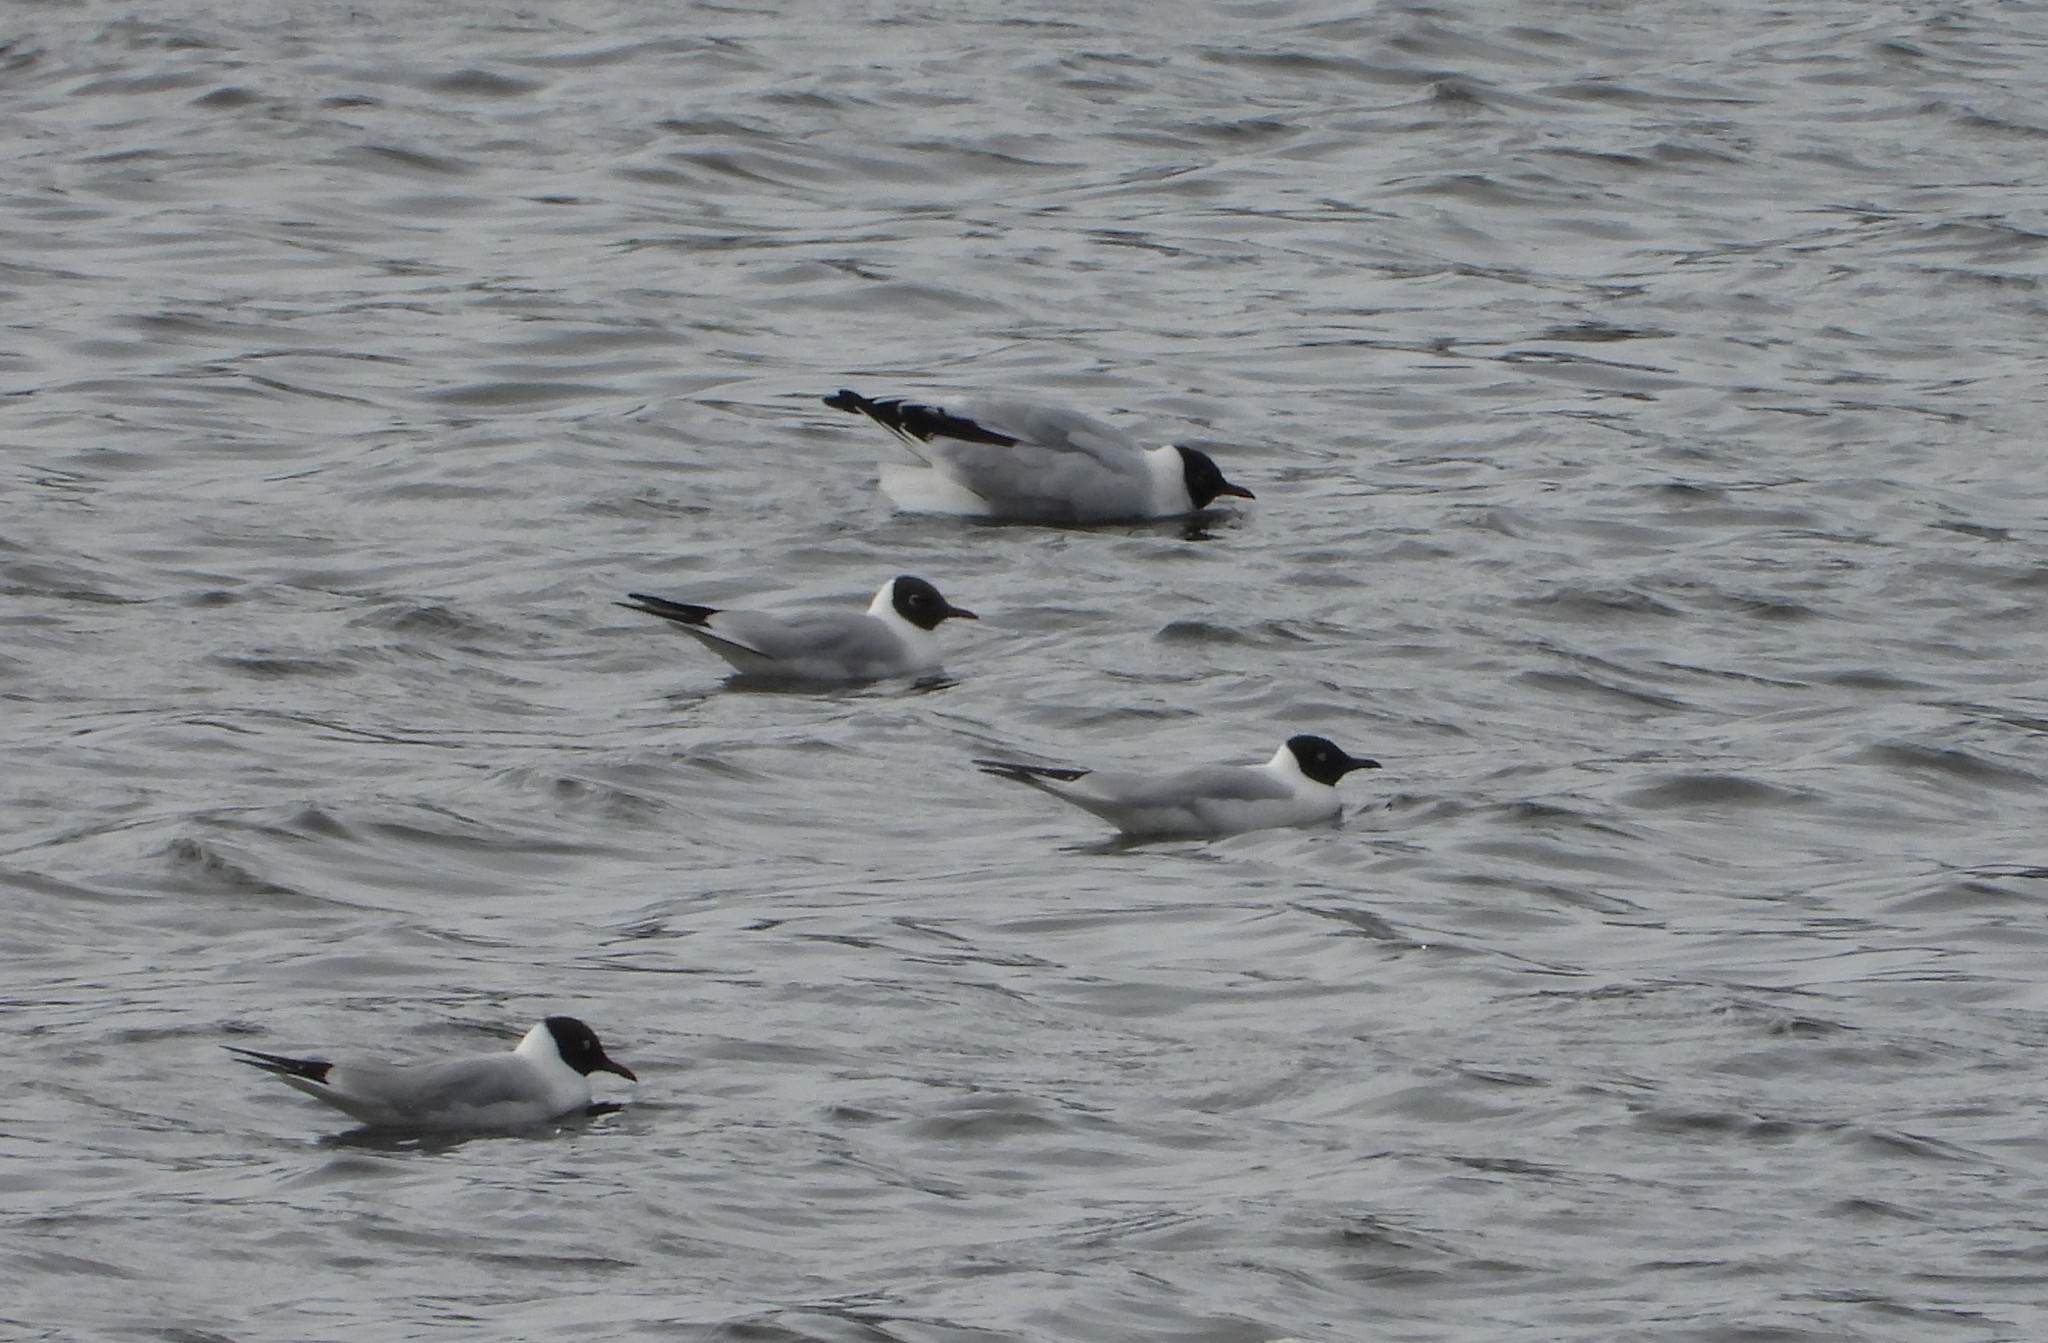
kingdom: Animalia
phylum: Chordata
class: Aves
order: Charadriiformes
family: Laridae
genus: Chroicocephalus
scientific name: Chroicocephalus ridibundus
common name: Black-headed gull
